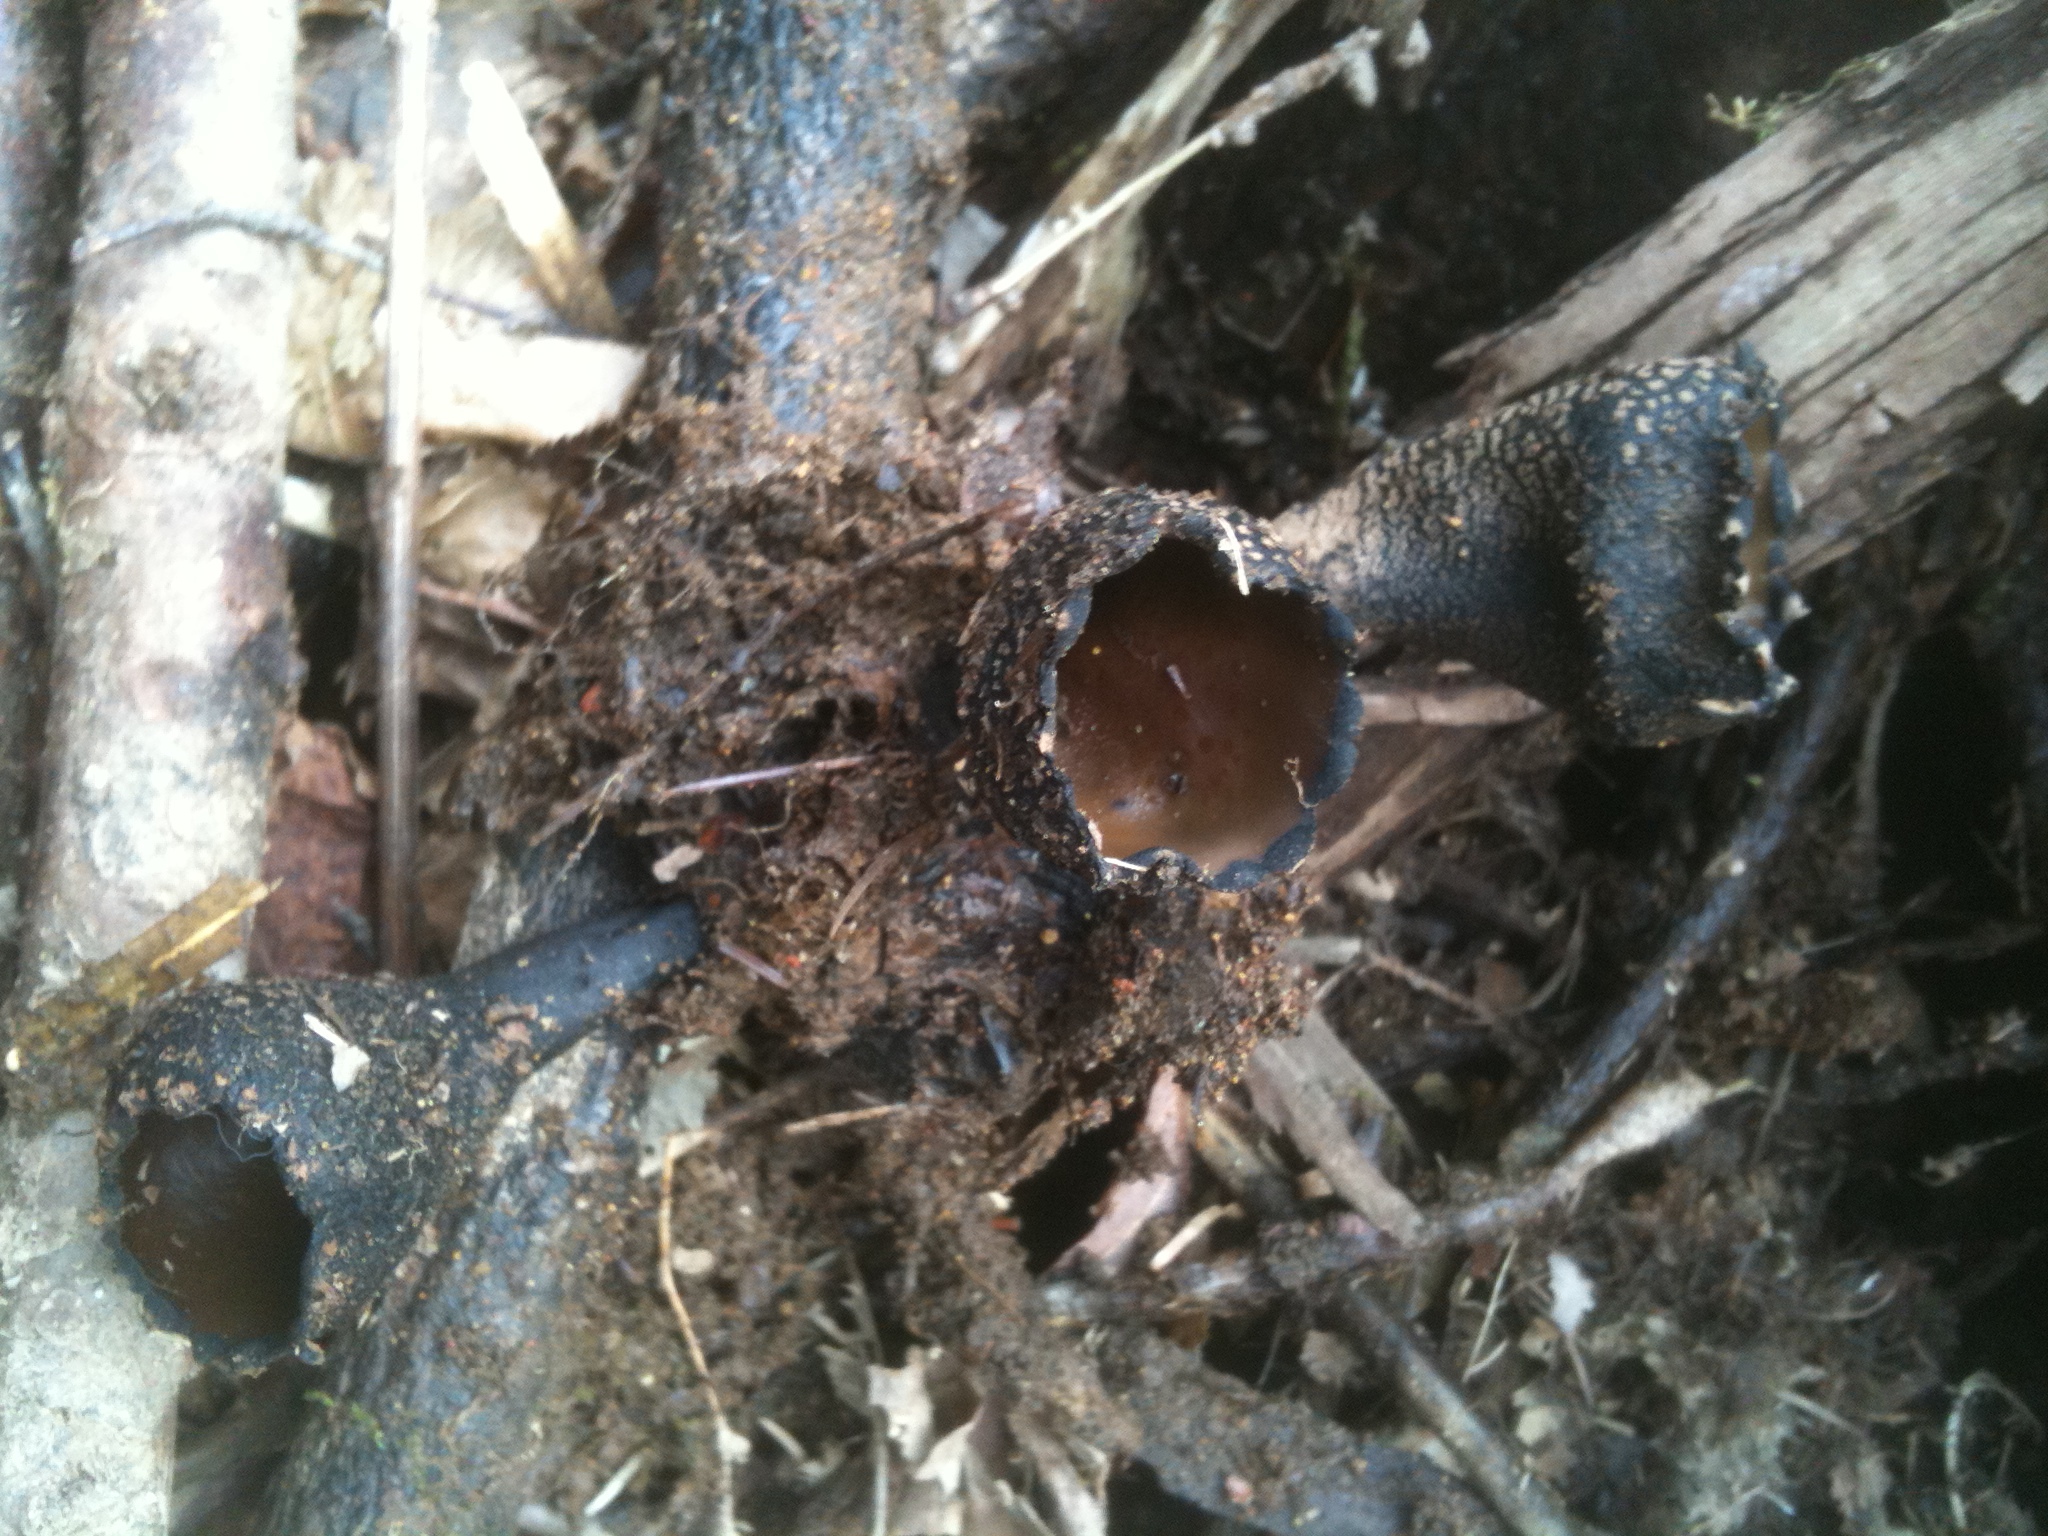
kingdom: Fungi
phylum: Ascomycota
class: Pezizomycetes
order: Pezizales
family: Sarcosomataceae
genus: Urnula
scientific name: Urnula craterium
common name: Devil's urn
